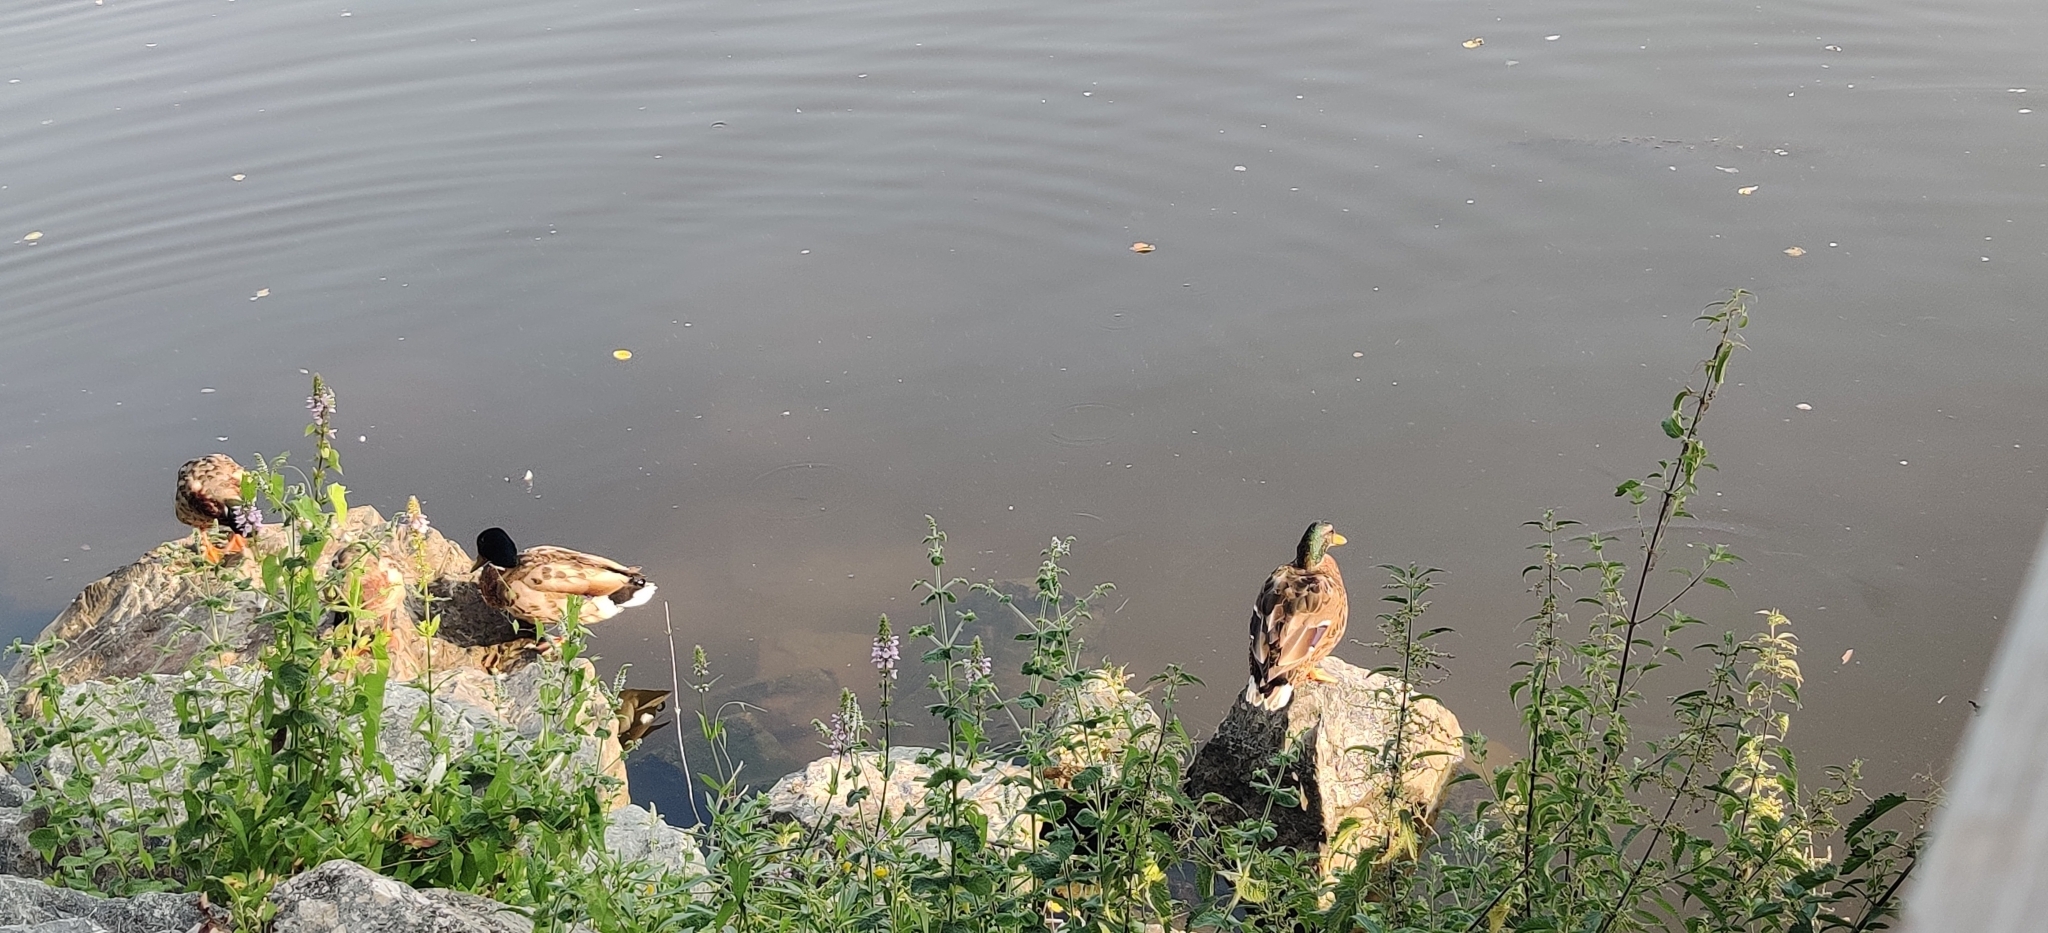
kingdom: Animalia
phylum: Chordata
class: Aves
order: Anseriformes
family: Anatidae
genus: Anas
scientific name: Anas platyrhynchos
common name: Mallard
